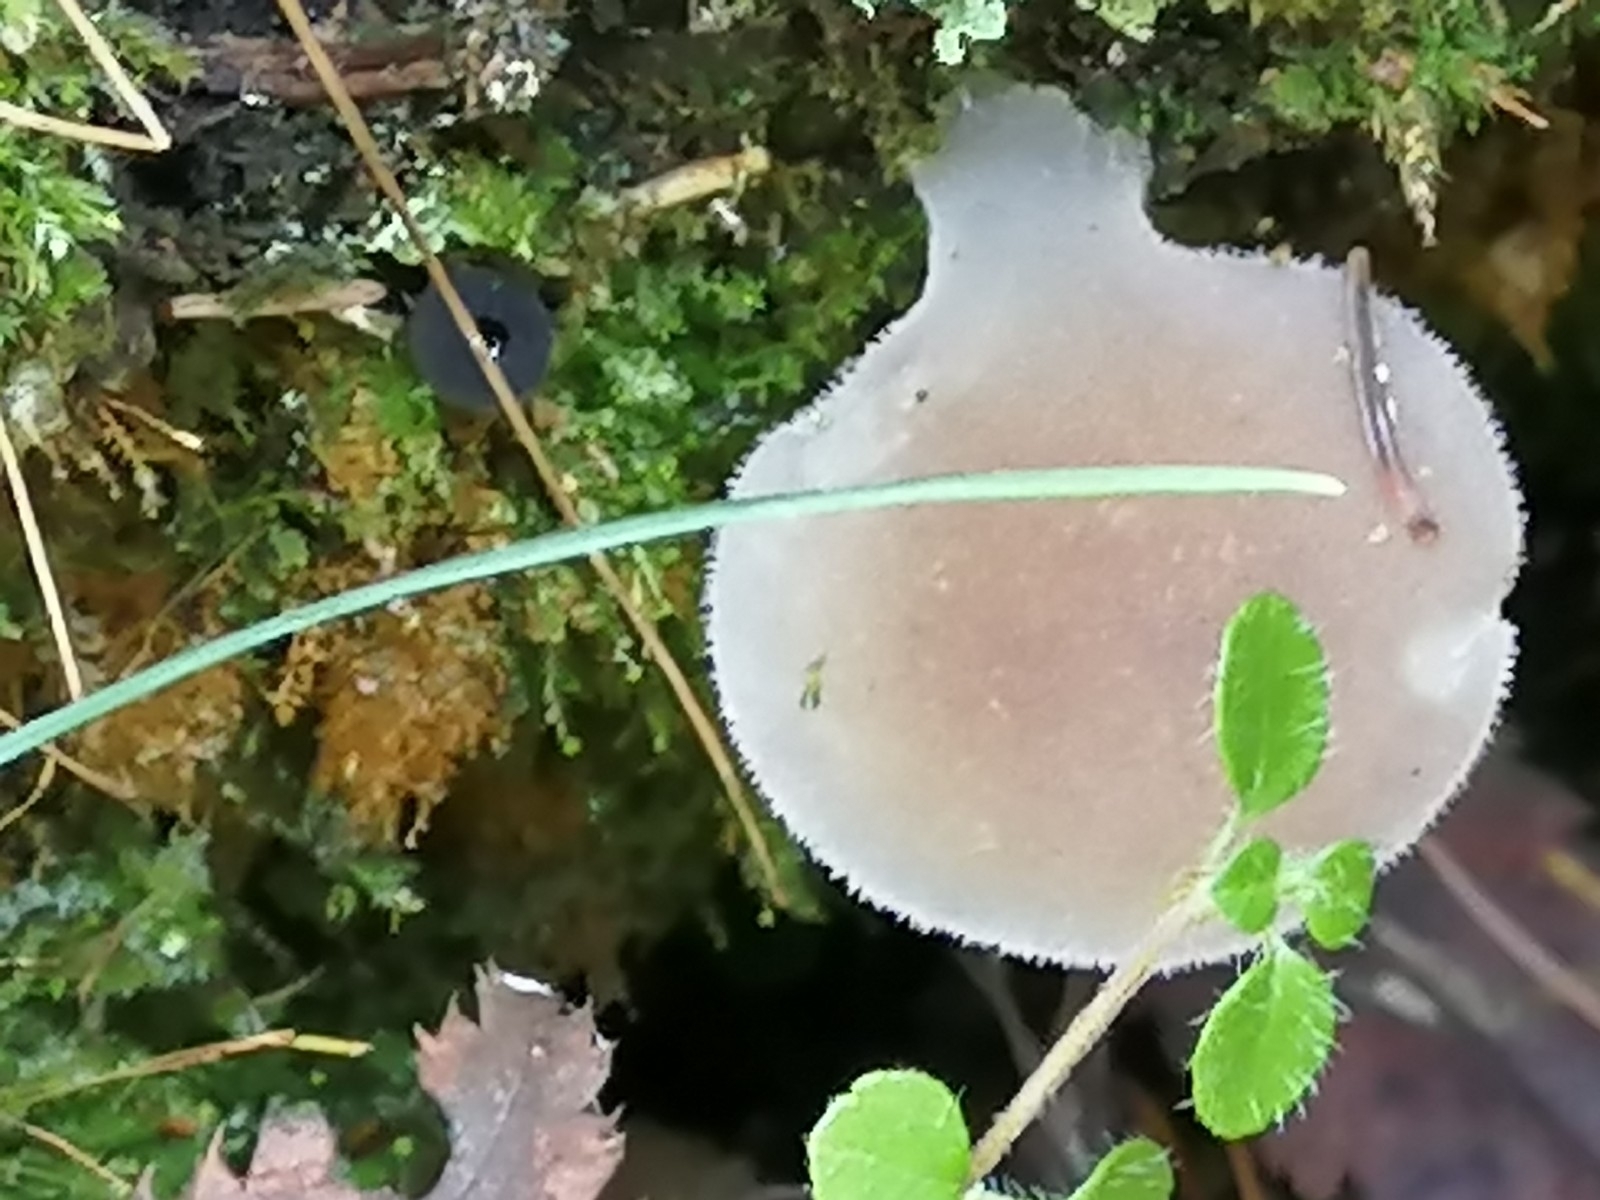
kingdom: Fungi
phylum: Basidiomycota
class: Agaricomycetes
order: Auriculariales
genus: Pseudohydnum
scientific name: Pseudohydnum gelatinosum
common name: Jelly tongue
